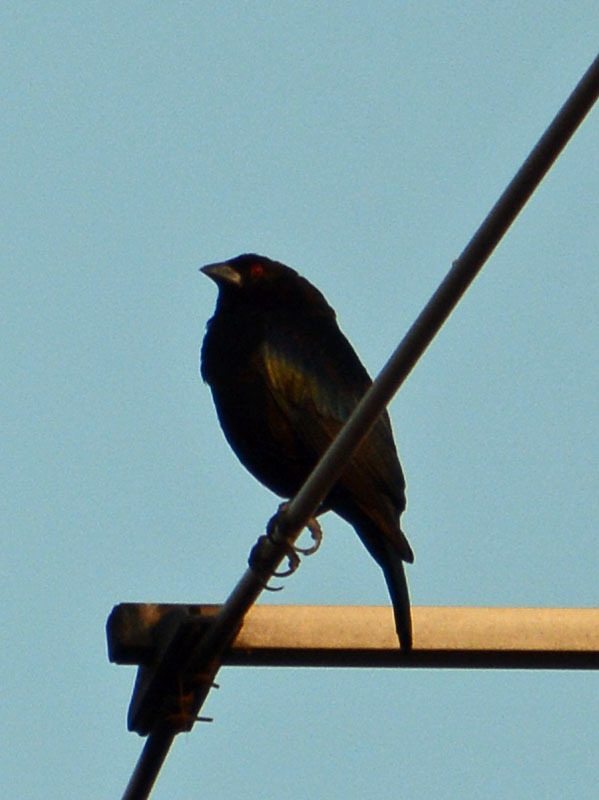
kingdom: Animalia
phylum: Chordata
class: Aves
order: Passeriformes
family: Icteridae
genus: Molothrus
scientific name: Molothrus aeneus
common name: Bronzed cowbird
